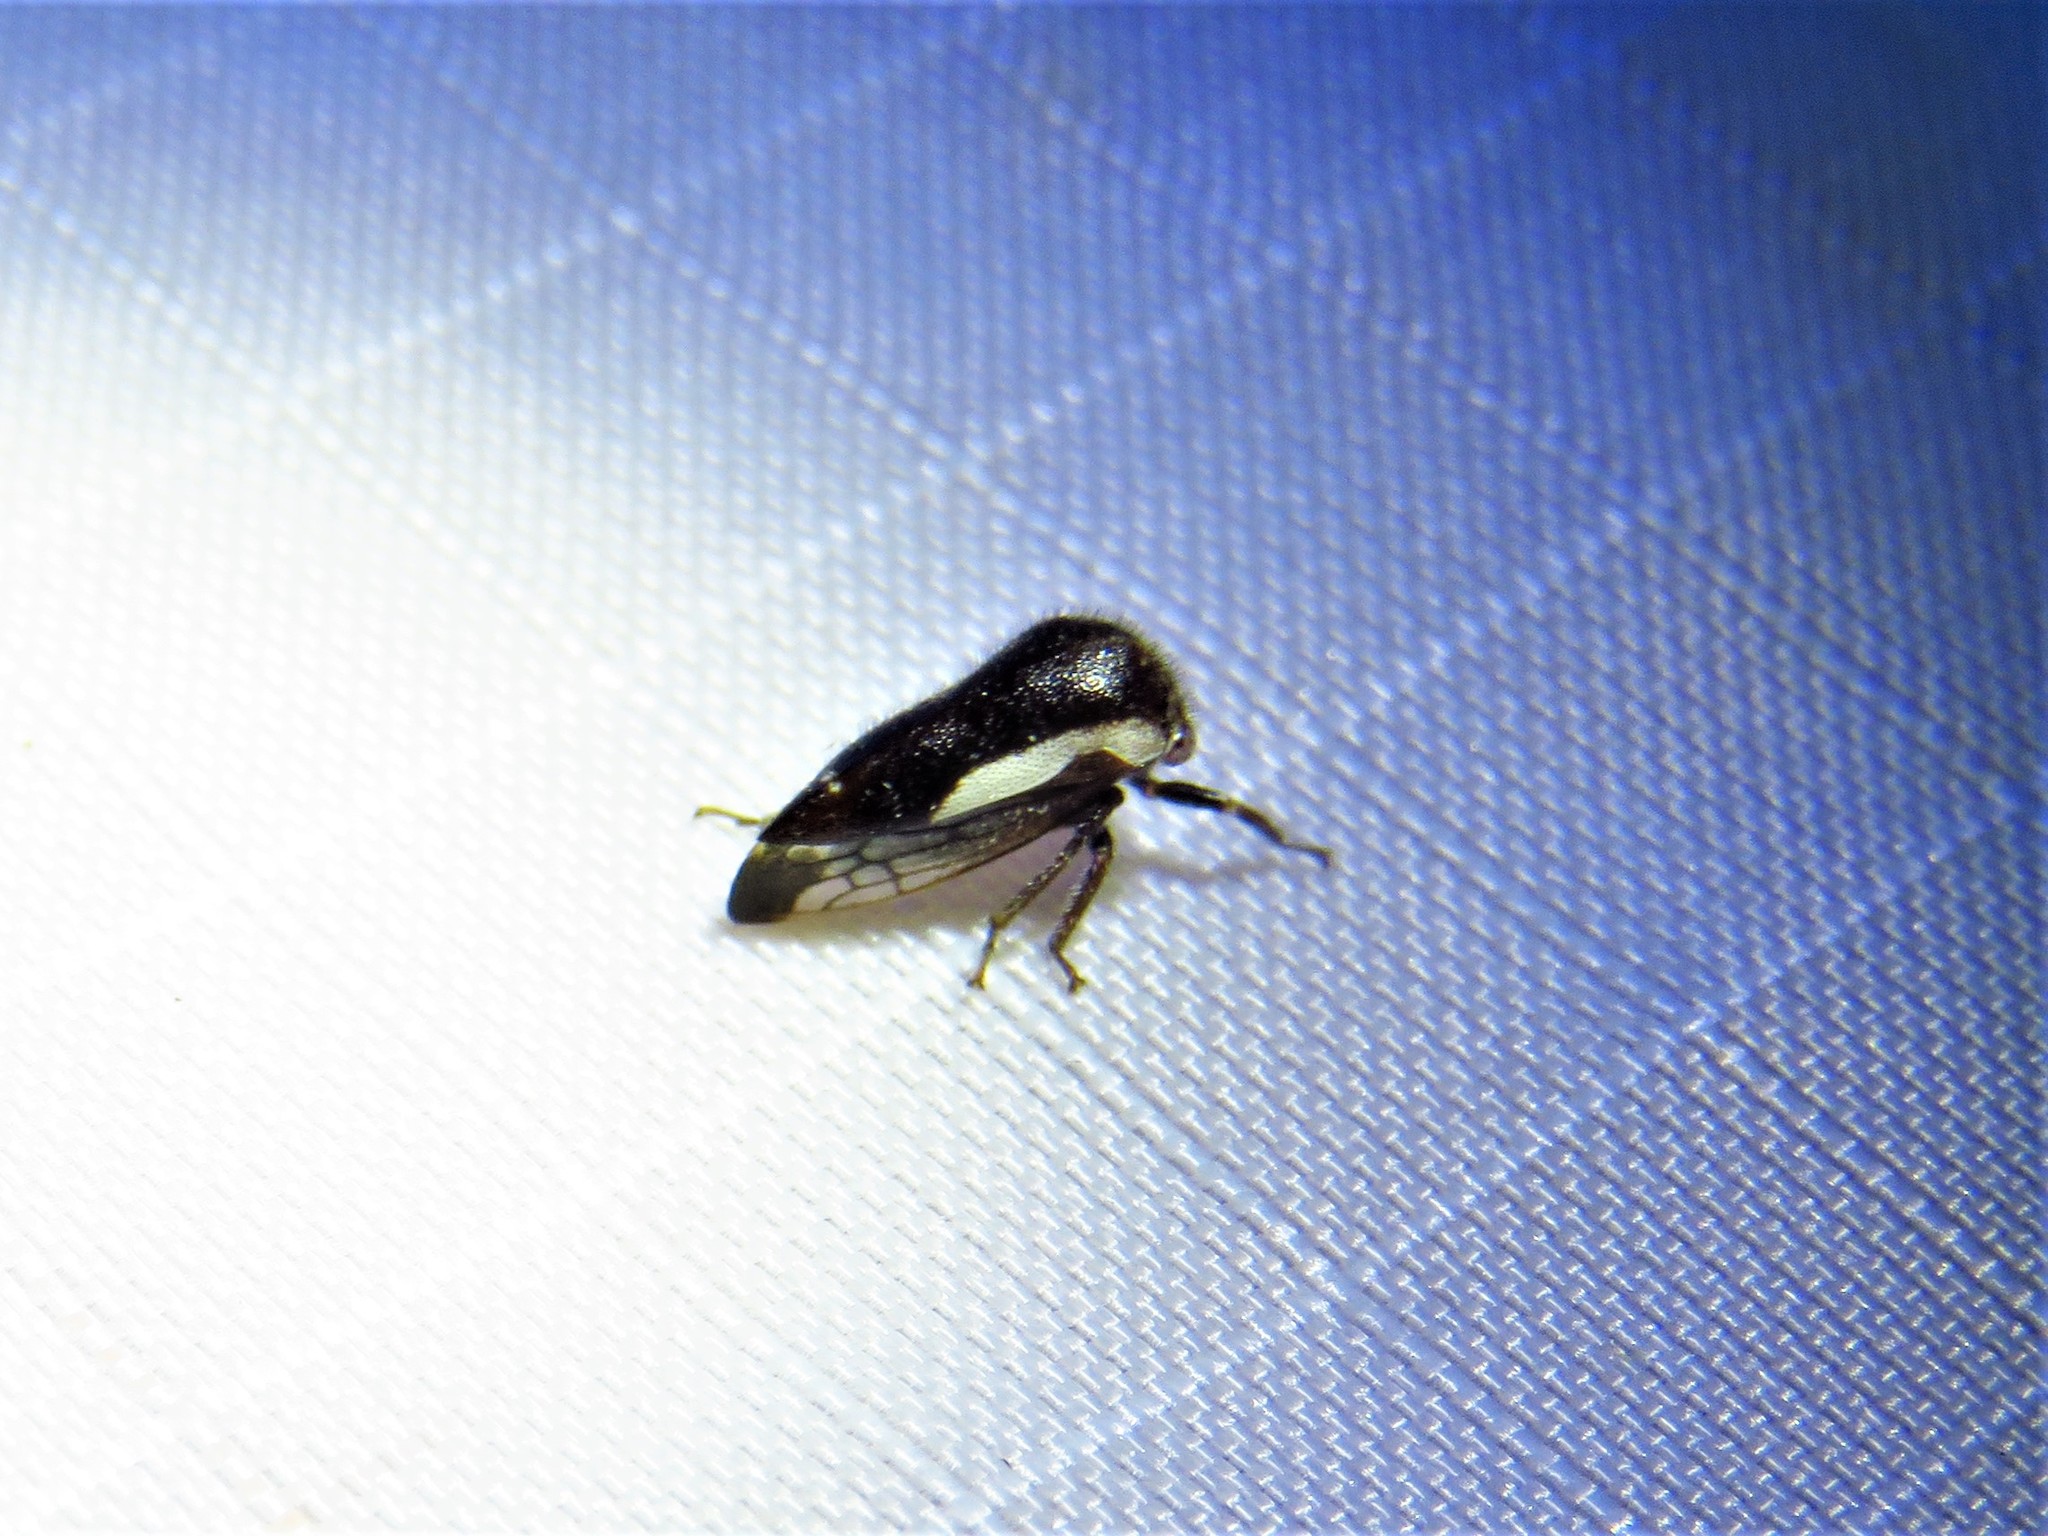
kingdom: Animalia
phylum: Arthropoda
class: Insecta
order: Hemiptera
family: Membracidae
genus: Ophiderma
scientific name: Ophiderma flavicephala
